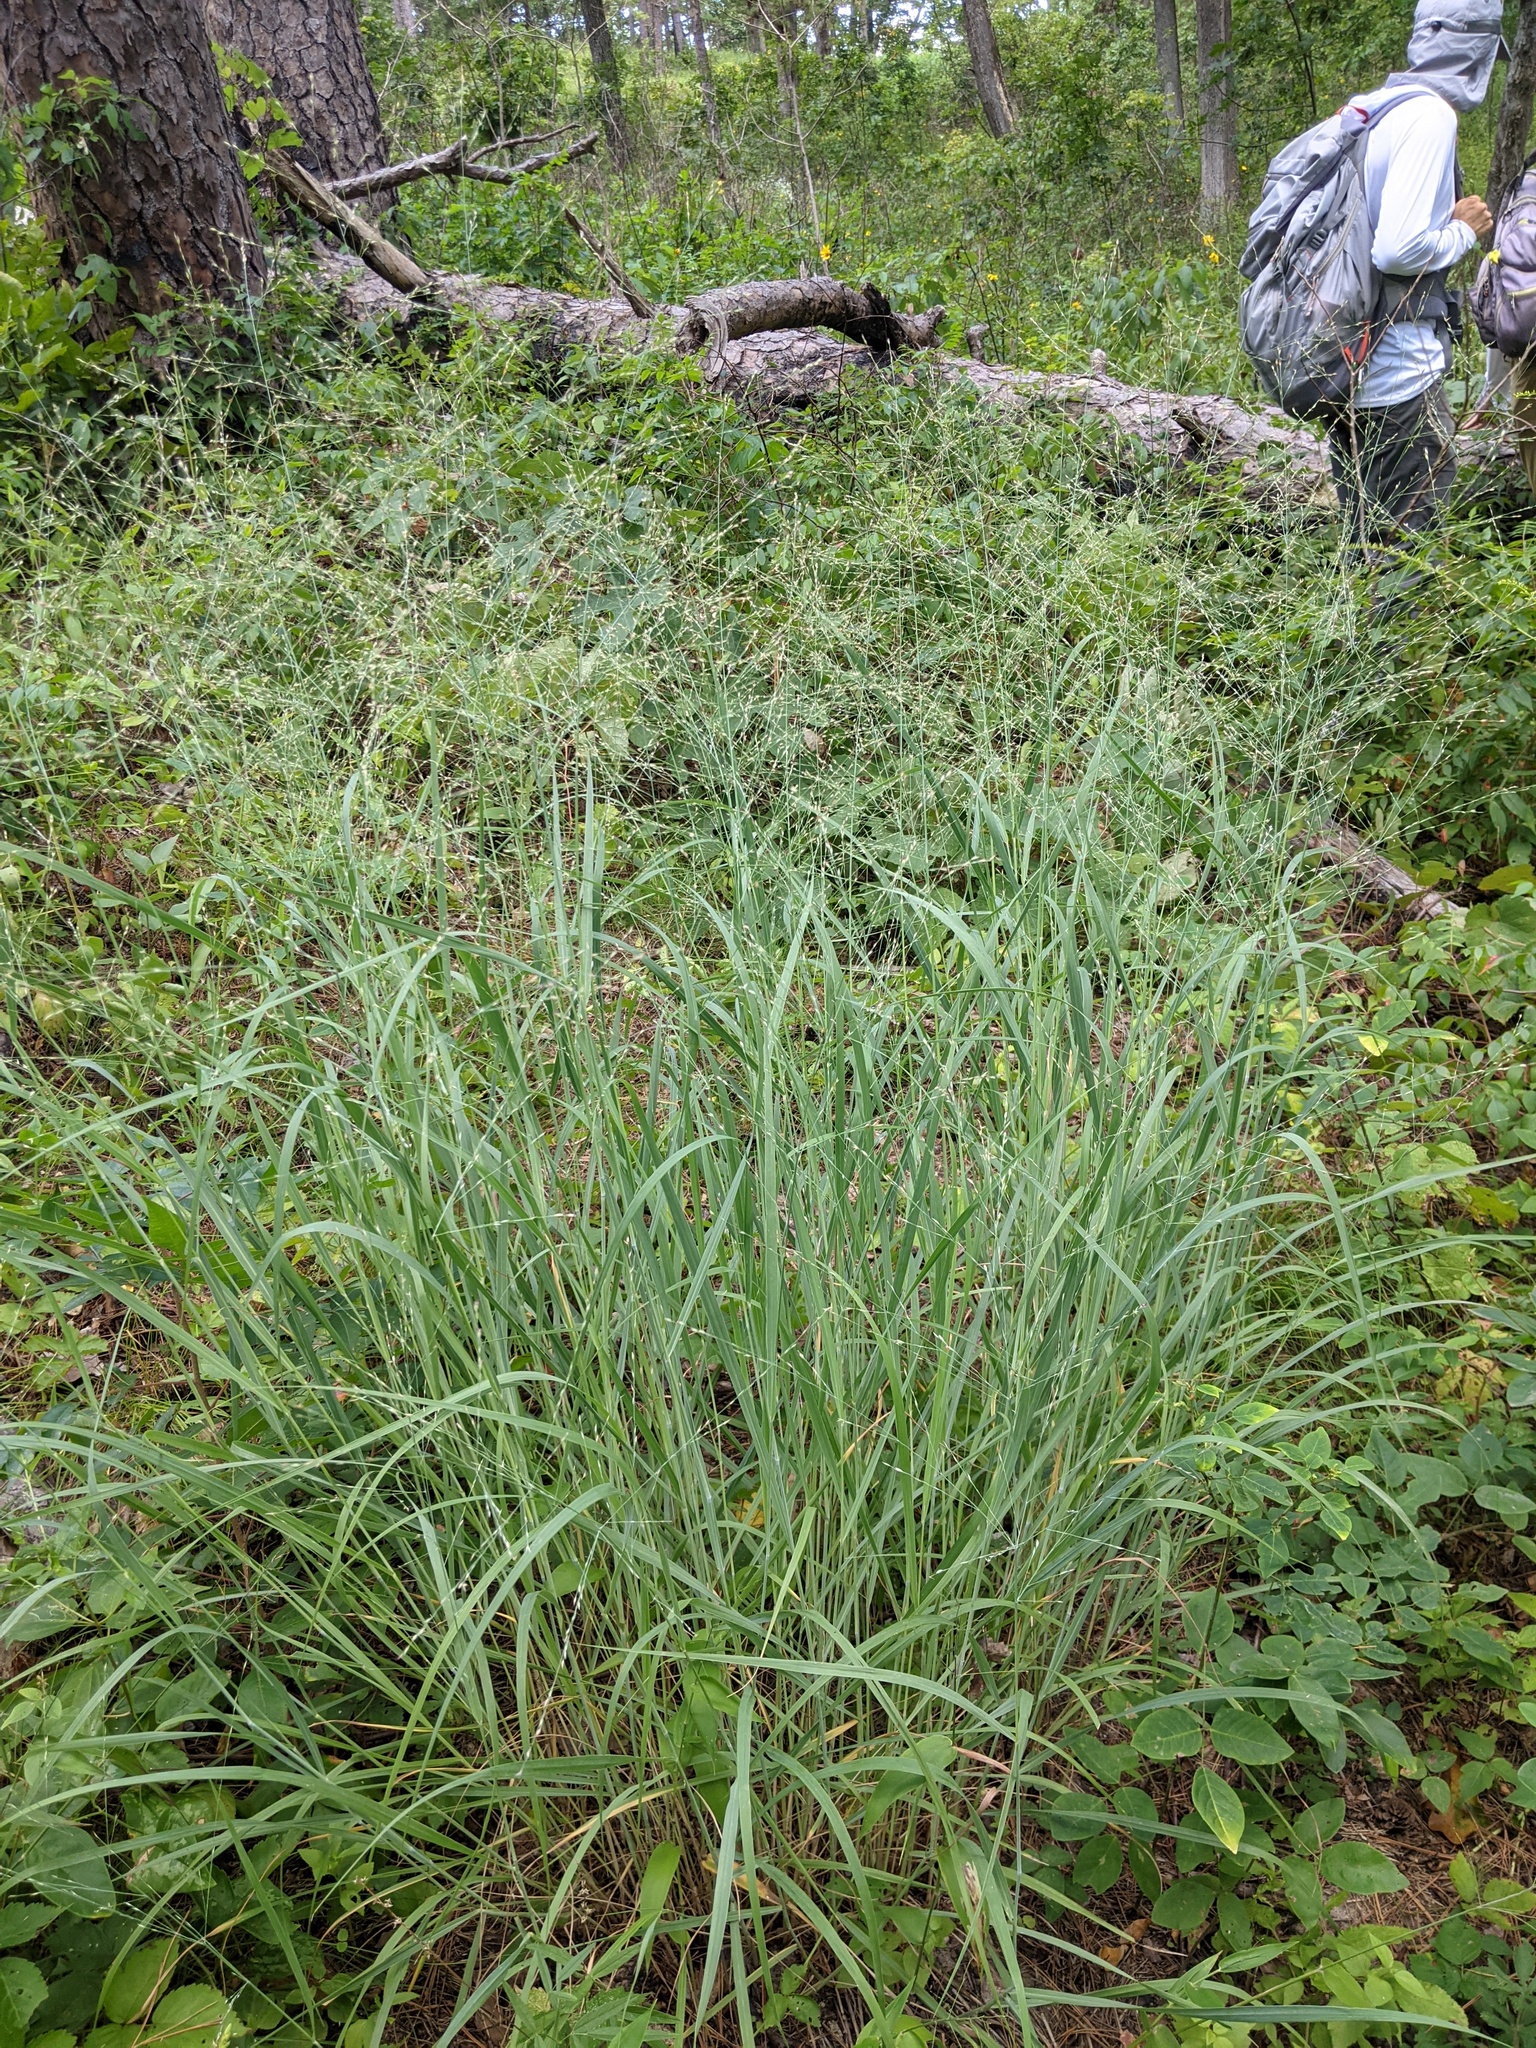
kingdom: Plantae
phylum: Tracheophyta
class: Liliopsida
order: Poales
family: Poaceae
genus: Panicum
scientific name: Panicum virgatum
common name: Switchgrass
